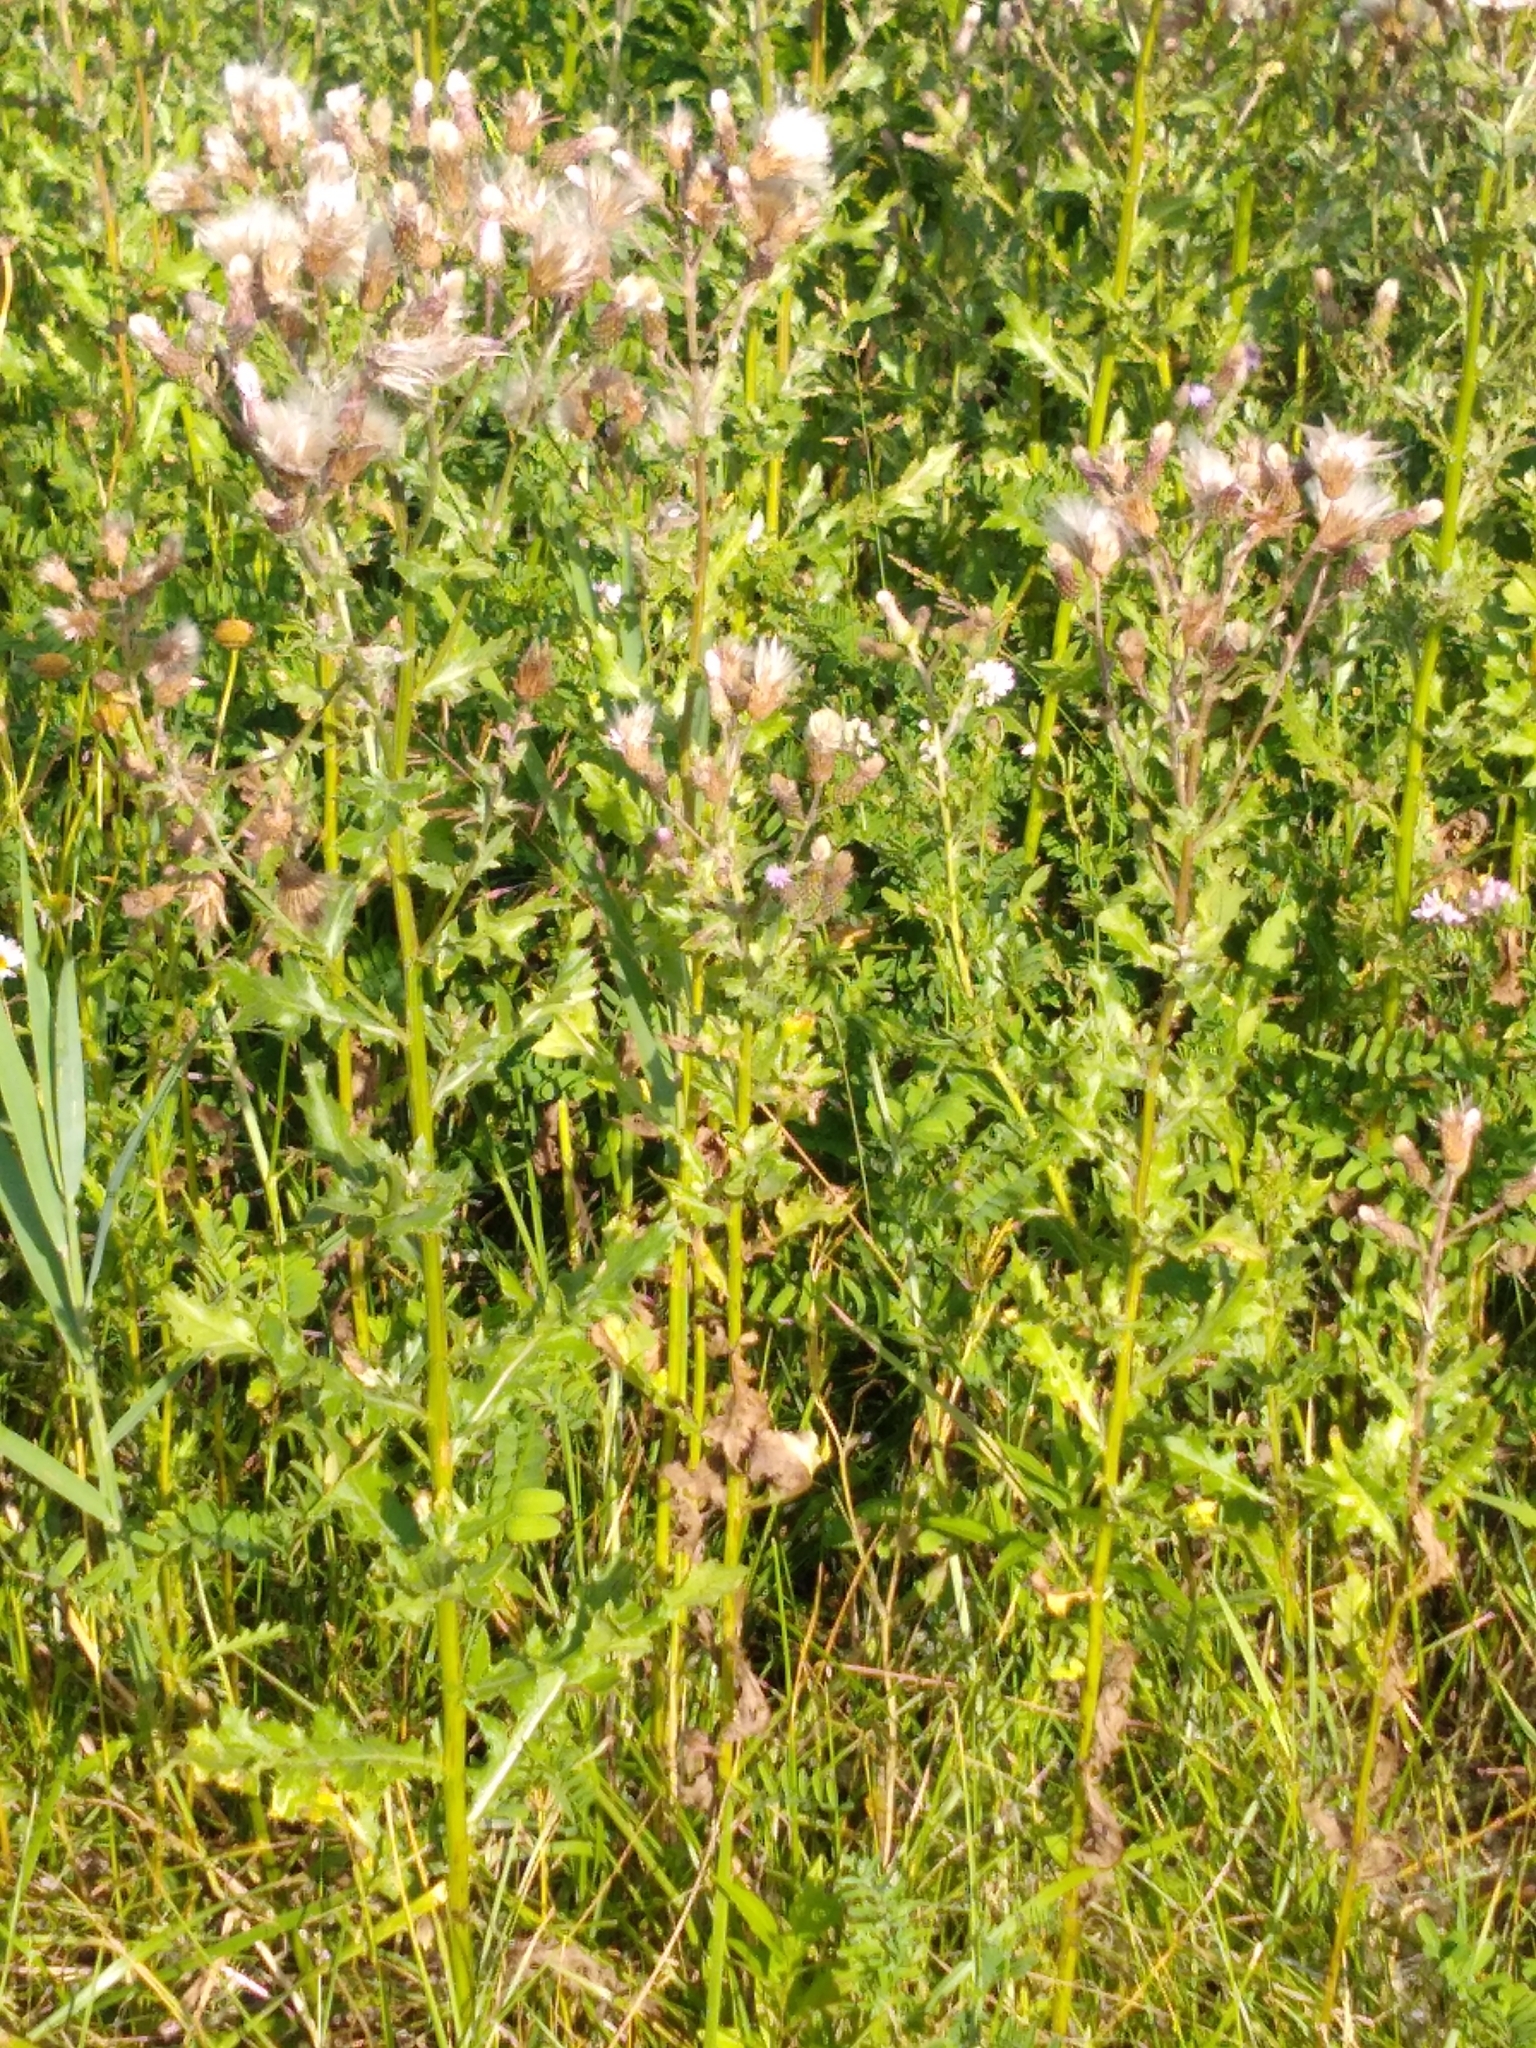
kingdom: Plantae
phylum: Tracheophyta
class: Magnoliopsida
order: Asterales
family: Asteraceae
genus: Cirsium
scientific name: Cirsium arvense
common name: Creeping thistle
